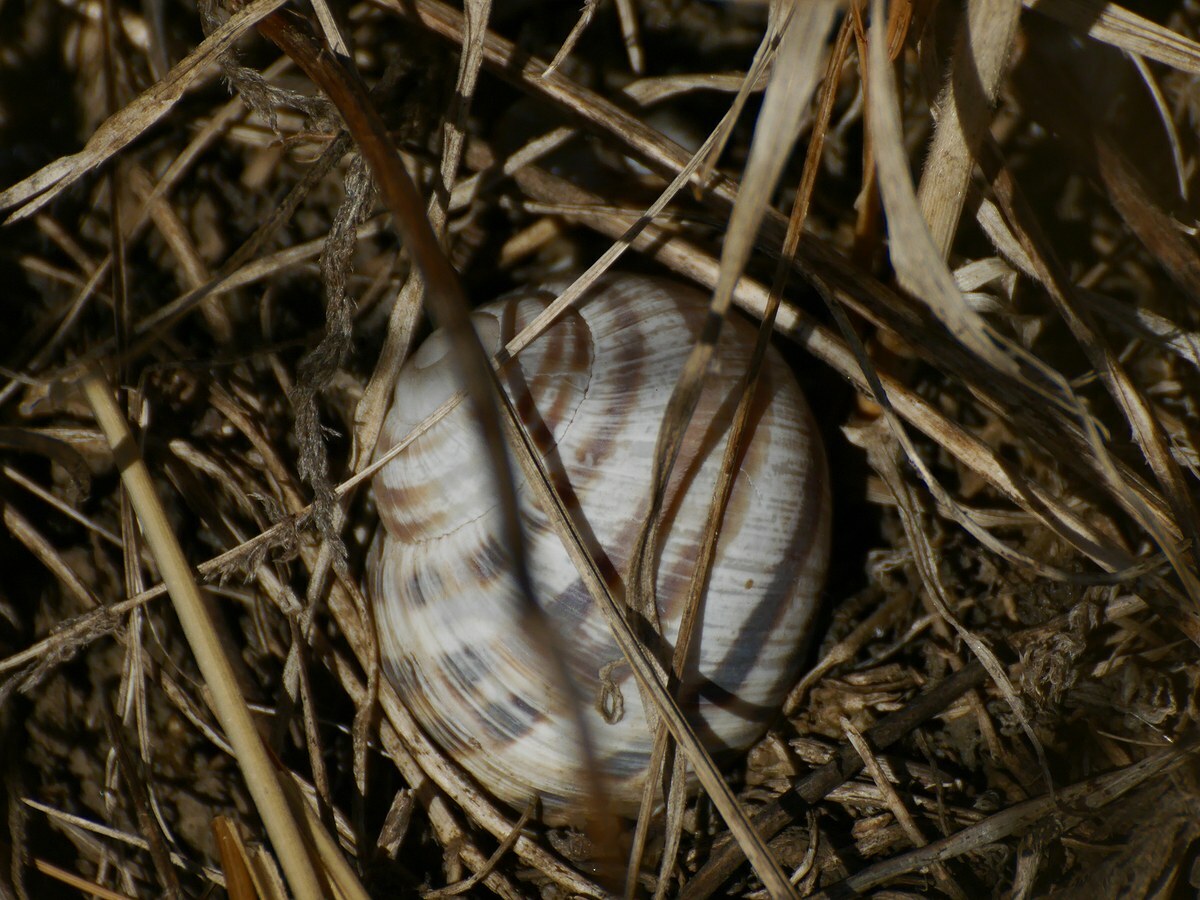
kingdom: Animalia
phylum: Mollusca
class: Gastropoda
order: Stylommatophora
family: Helicidae
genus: Helix
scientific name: Helix albescens
